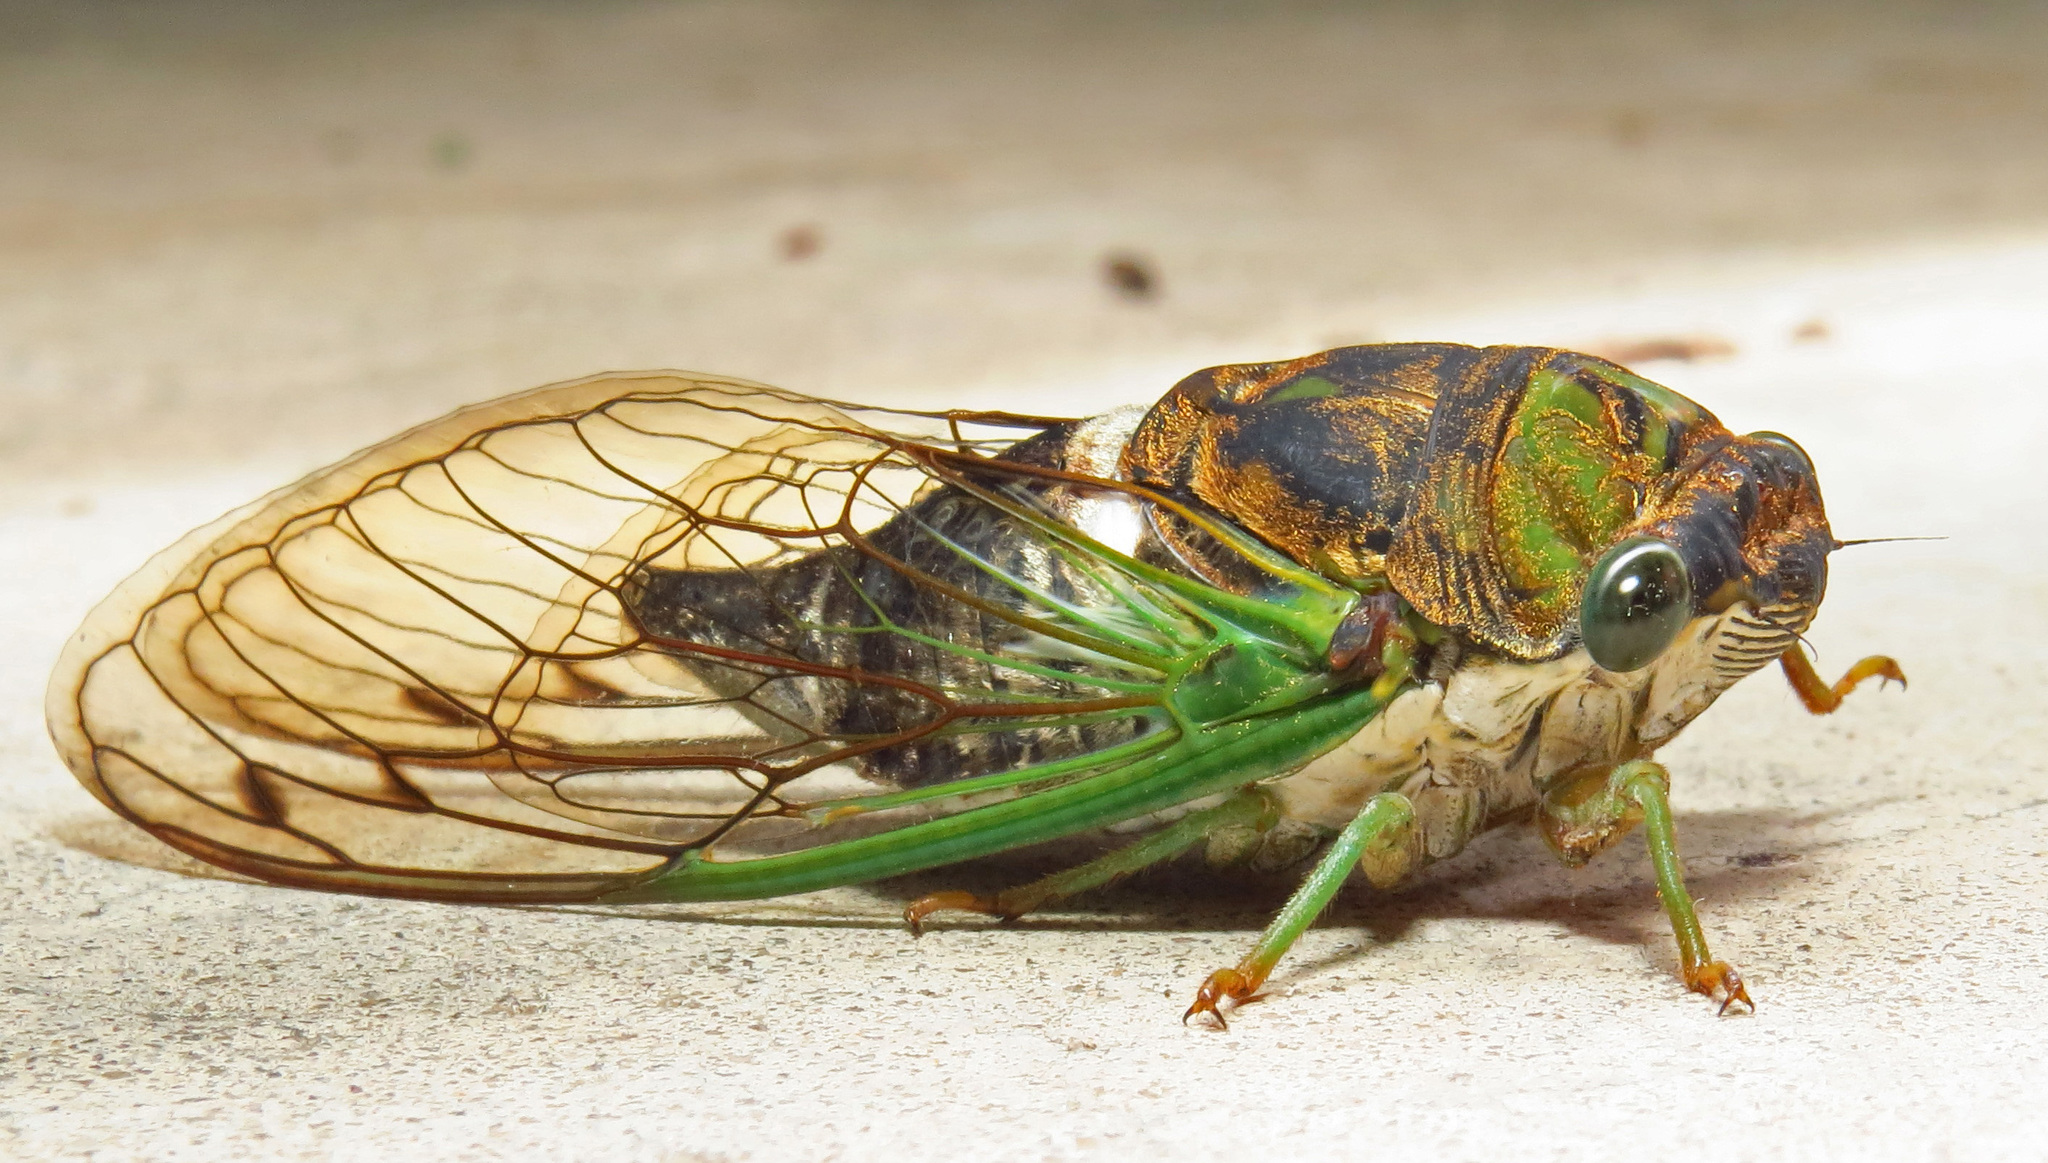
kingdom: Animalia
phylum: Arthropoda
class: Insecta
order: Hemiptera
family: Cicadidae
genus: Neotibicen
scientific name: Neotibicen tibicen
